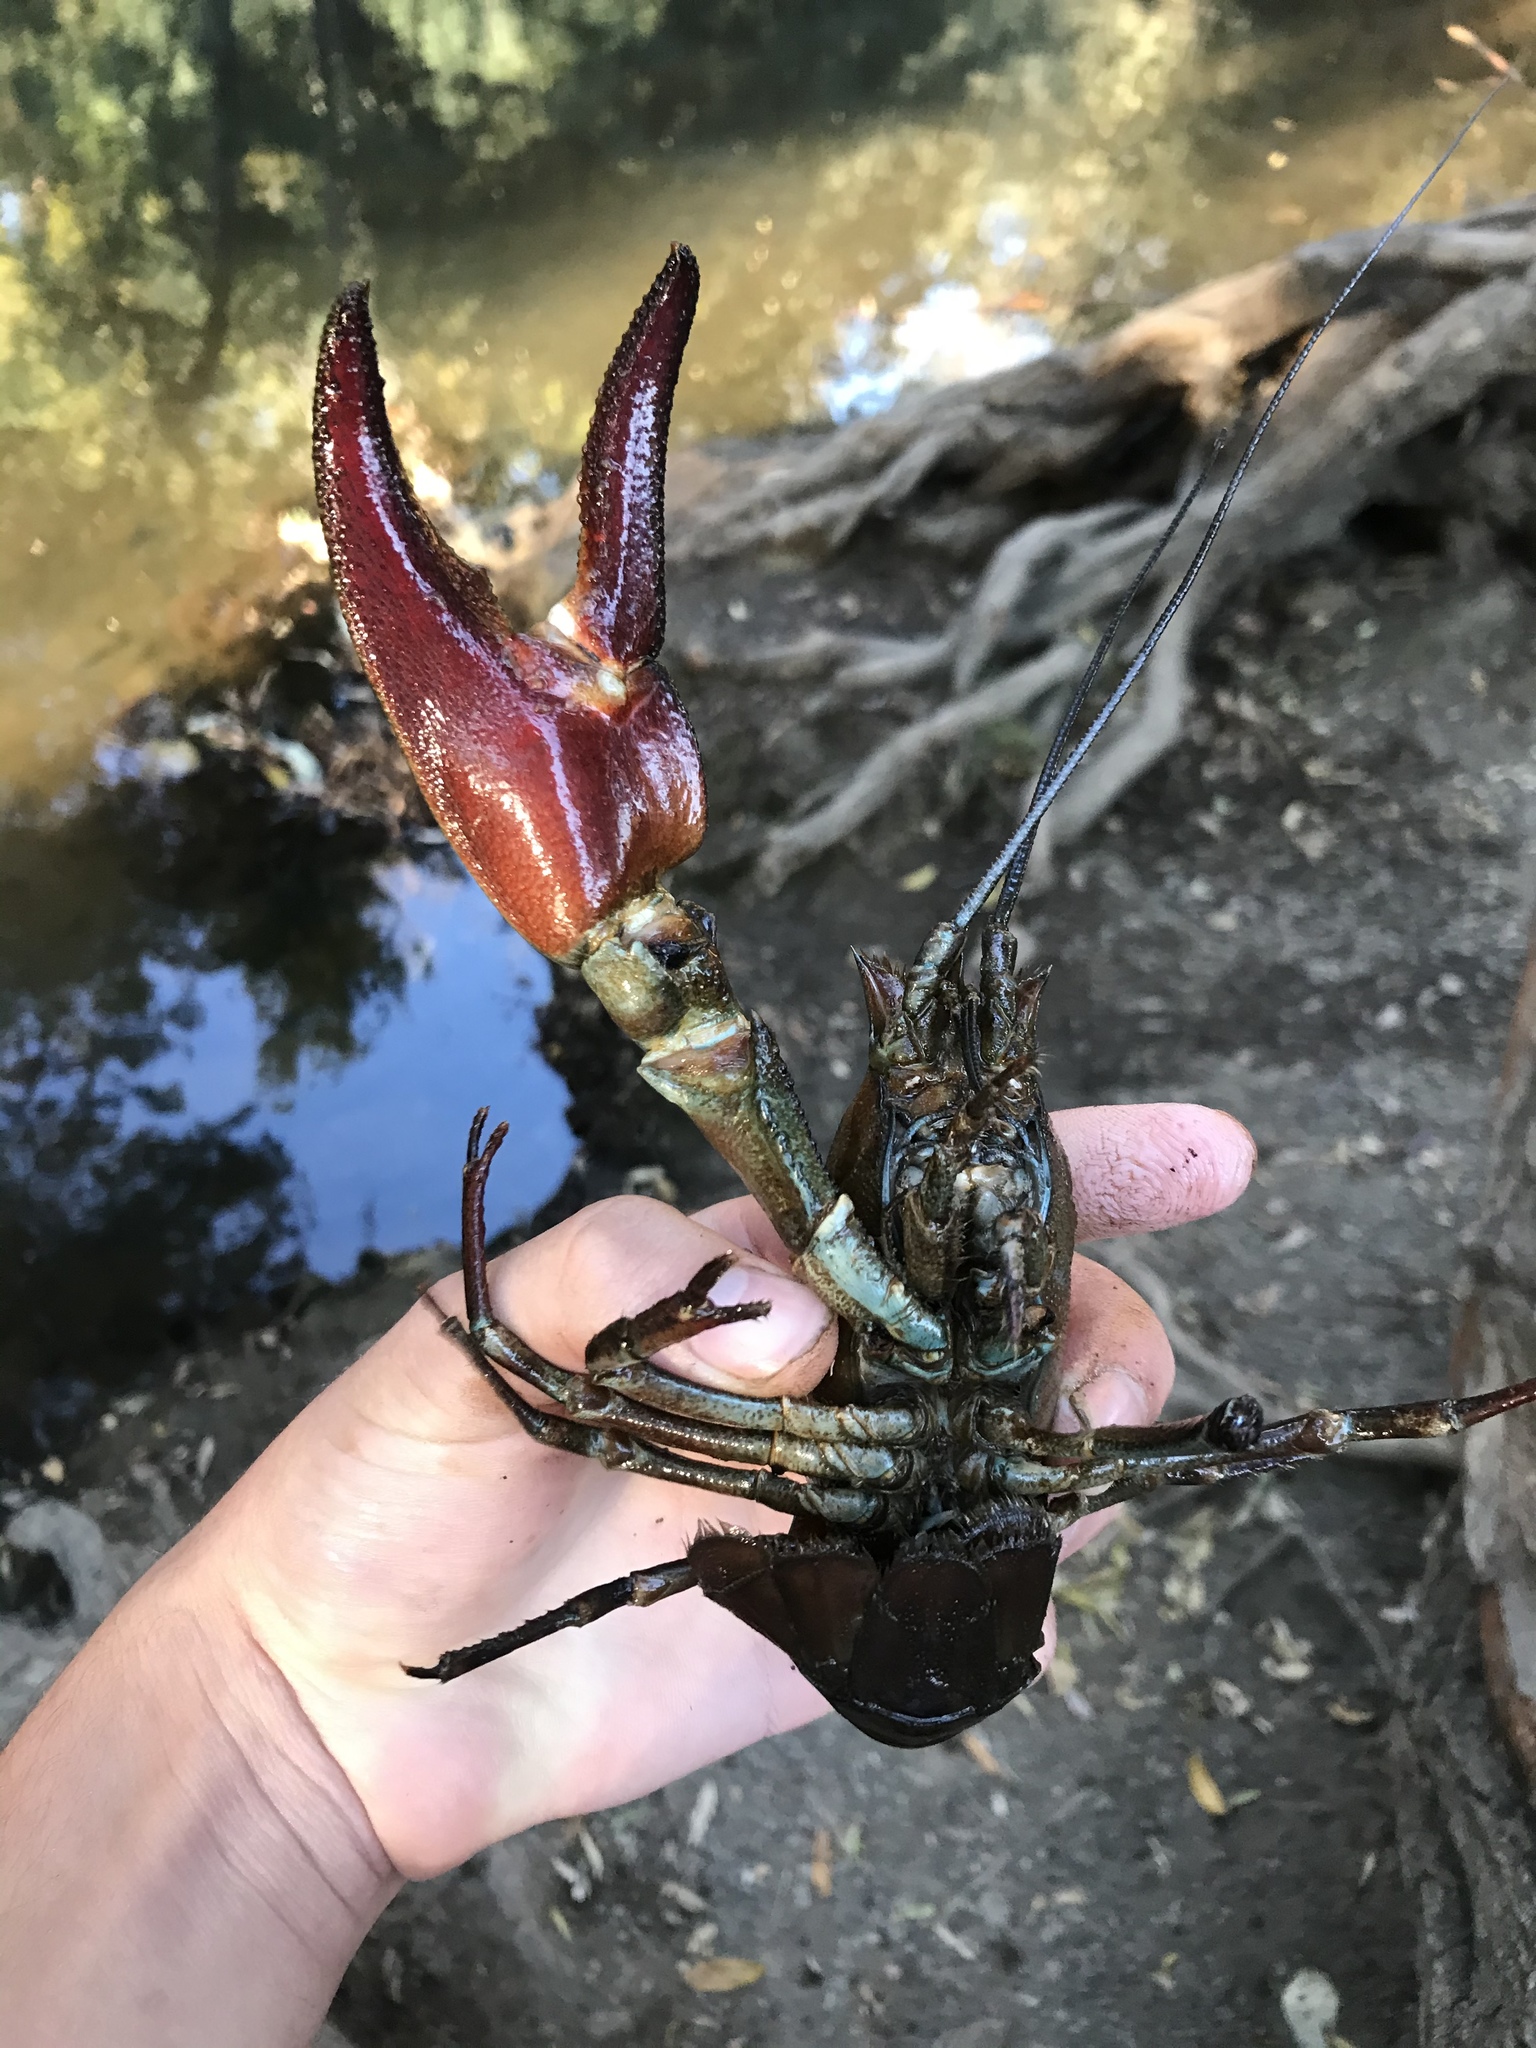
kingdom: Animalia
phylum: Arthropoda
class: Malacostraca
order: Decapoda
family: Astacidae
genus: Pacifastacus
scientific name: Pacifastacus leniusculus
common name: Signal crayfish
